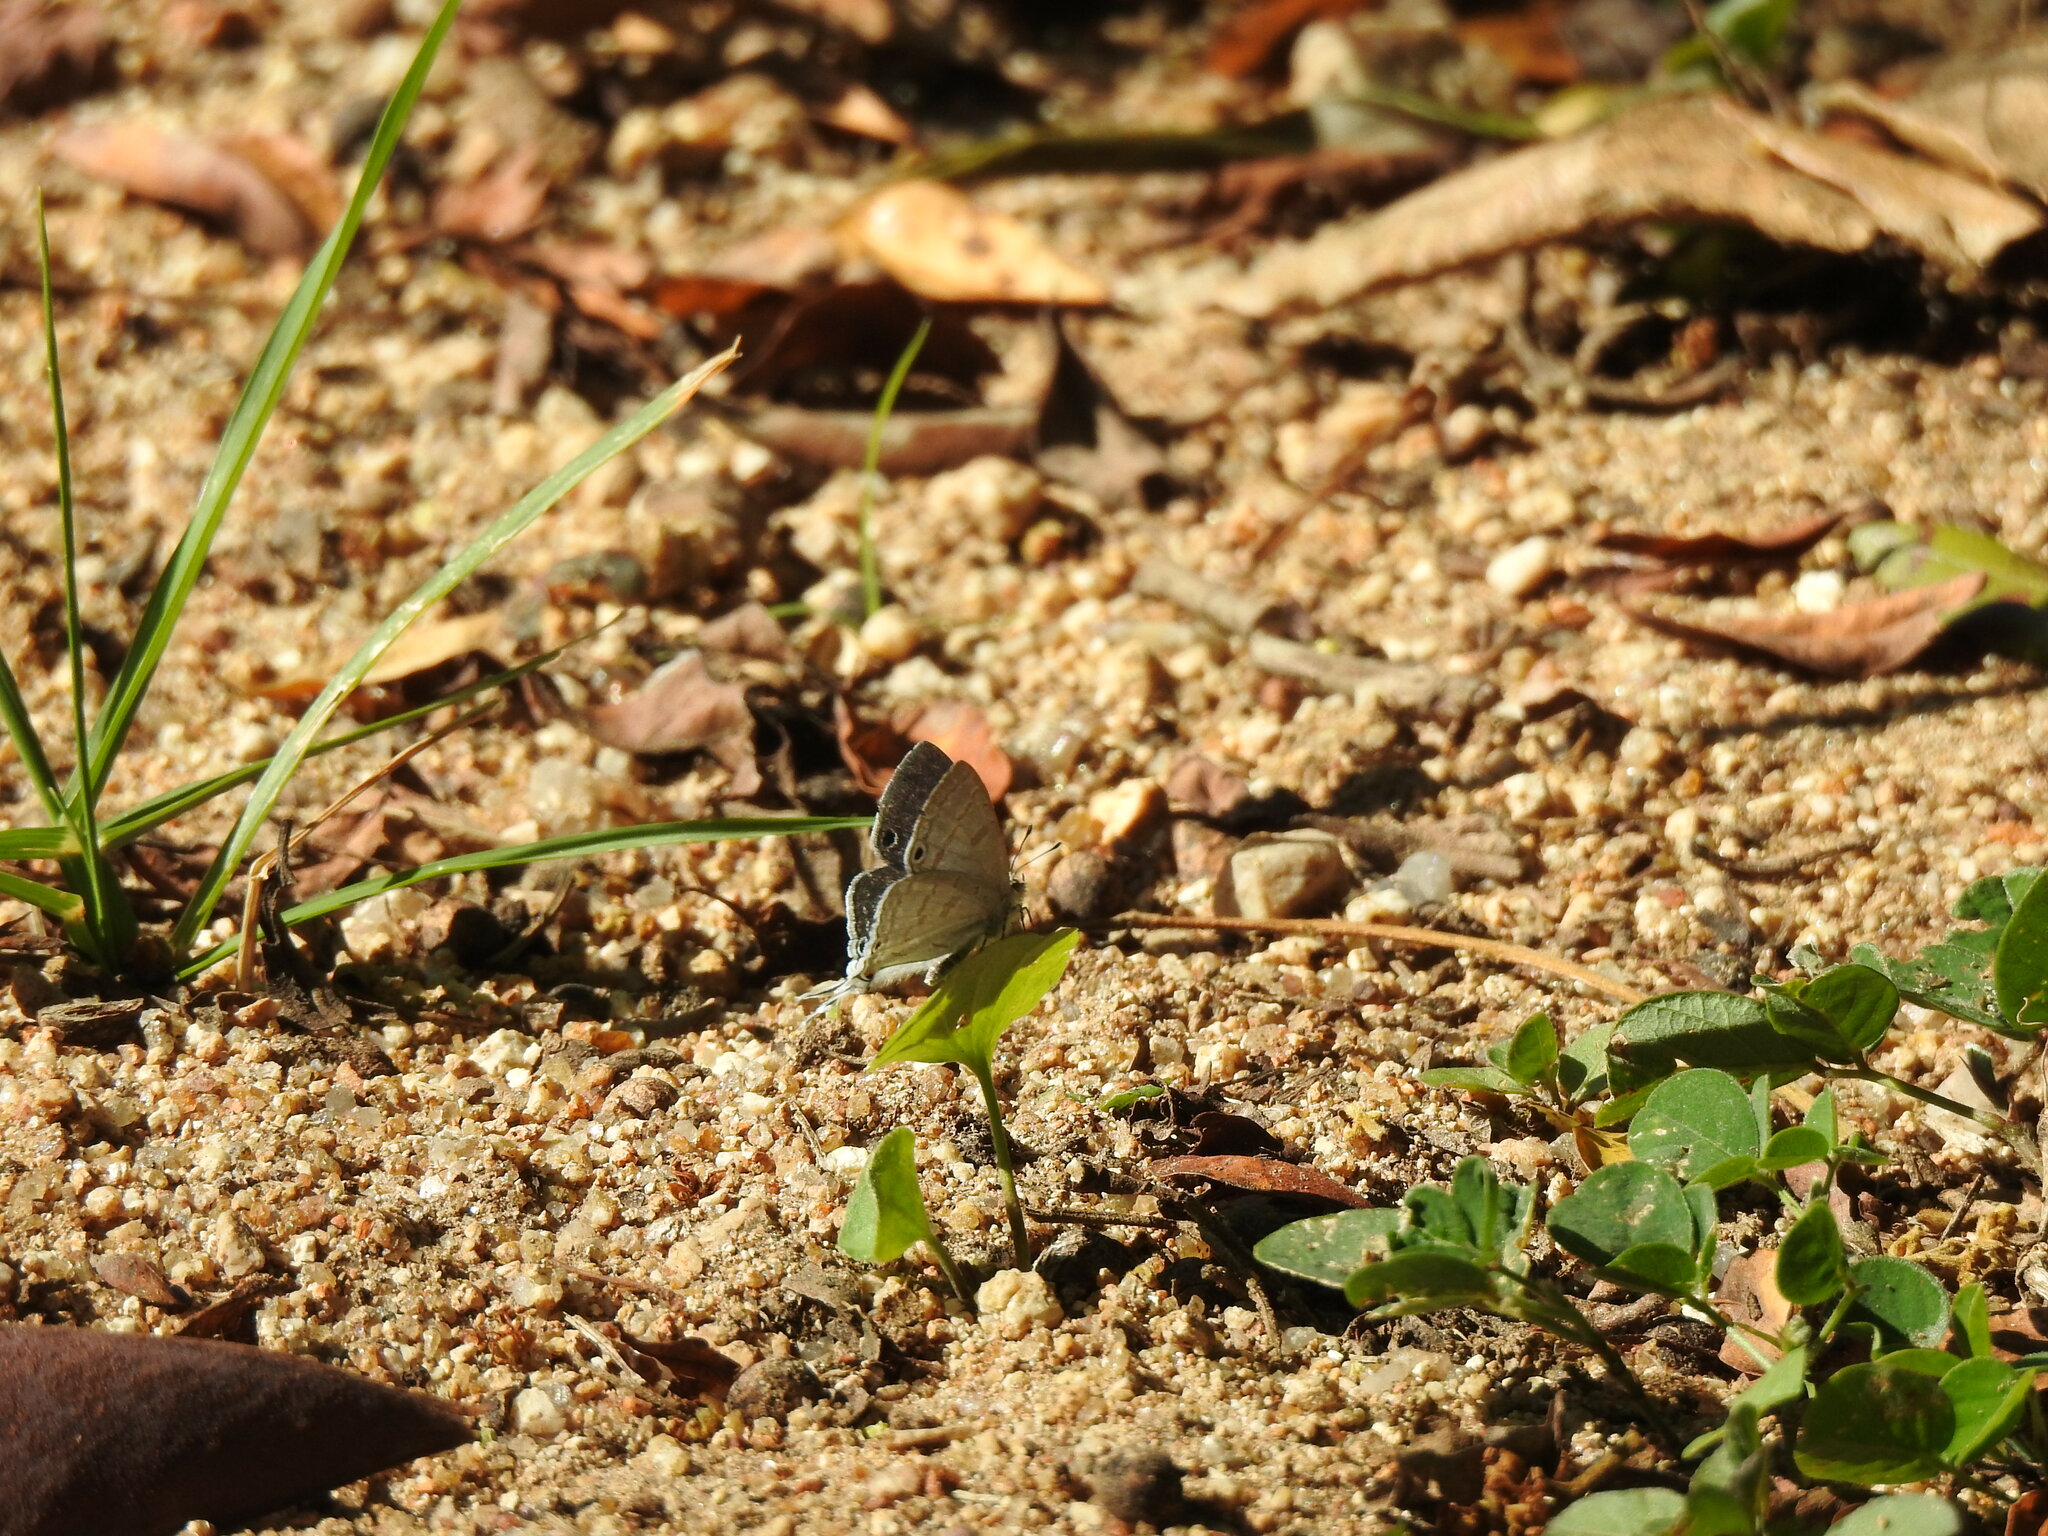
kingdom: Animalia
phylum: Arthropoda
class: Insecta
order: Lepidoptera
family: Lycaenidae
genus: Leptomyrina
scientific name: Leptomyrina hirundo
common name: Tailed black-eye
